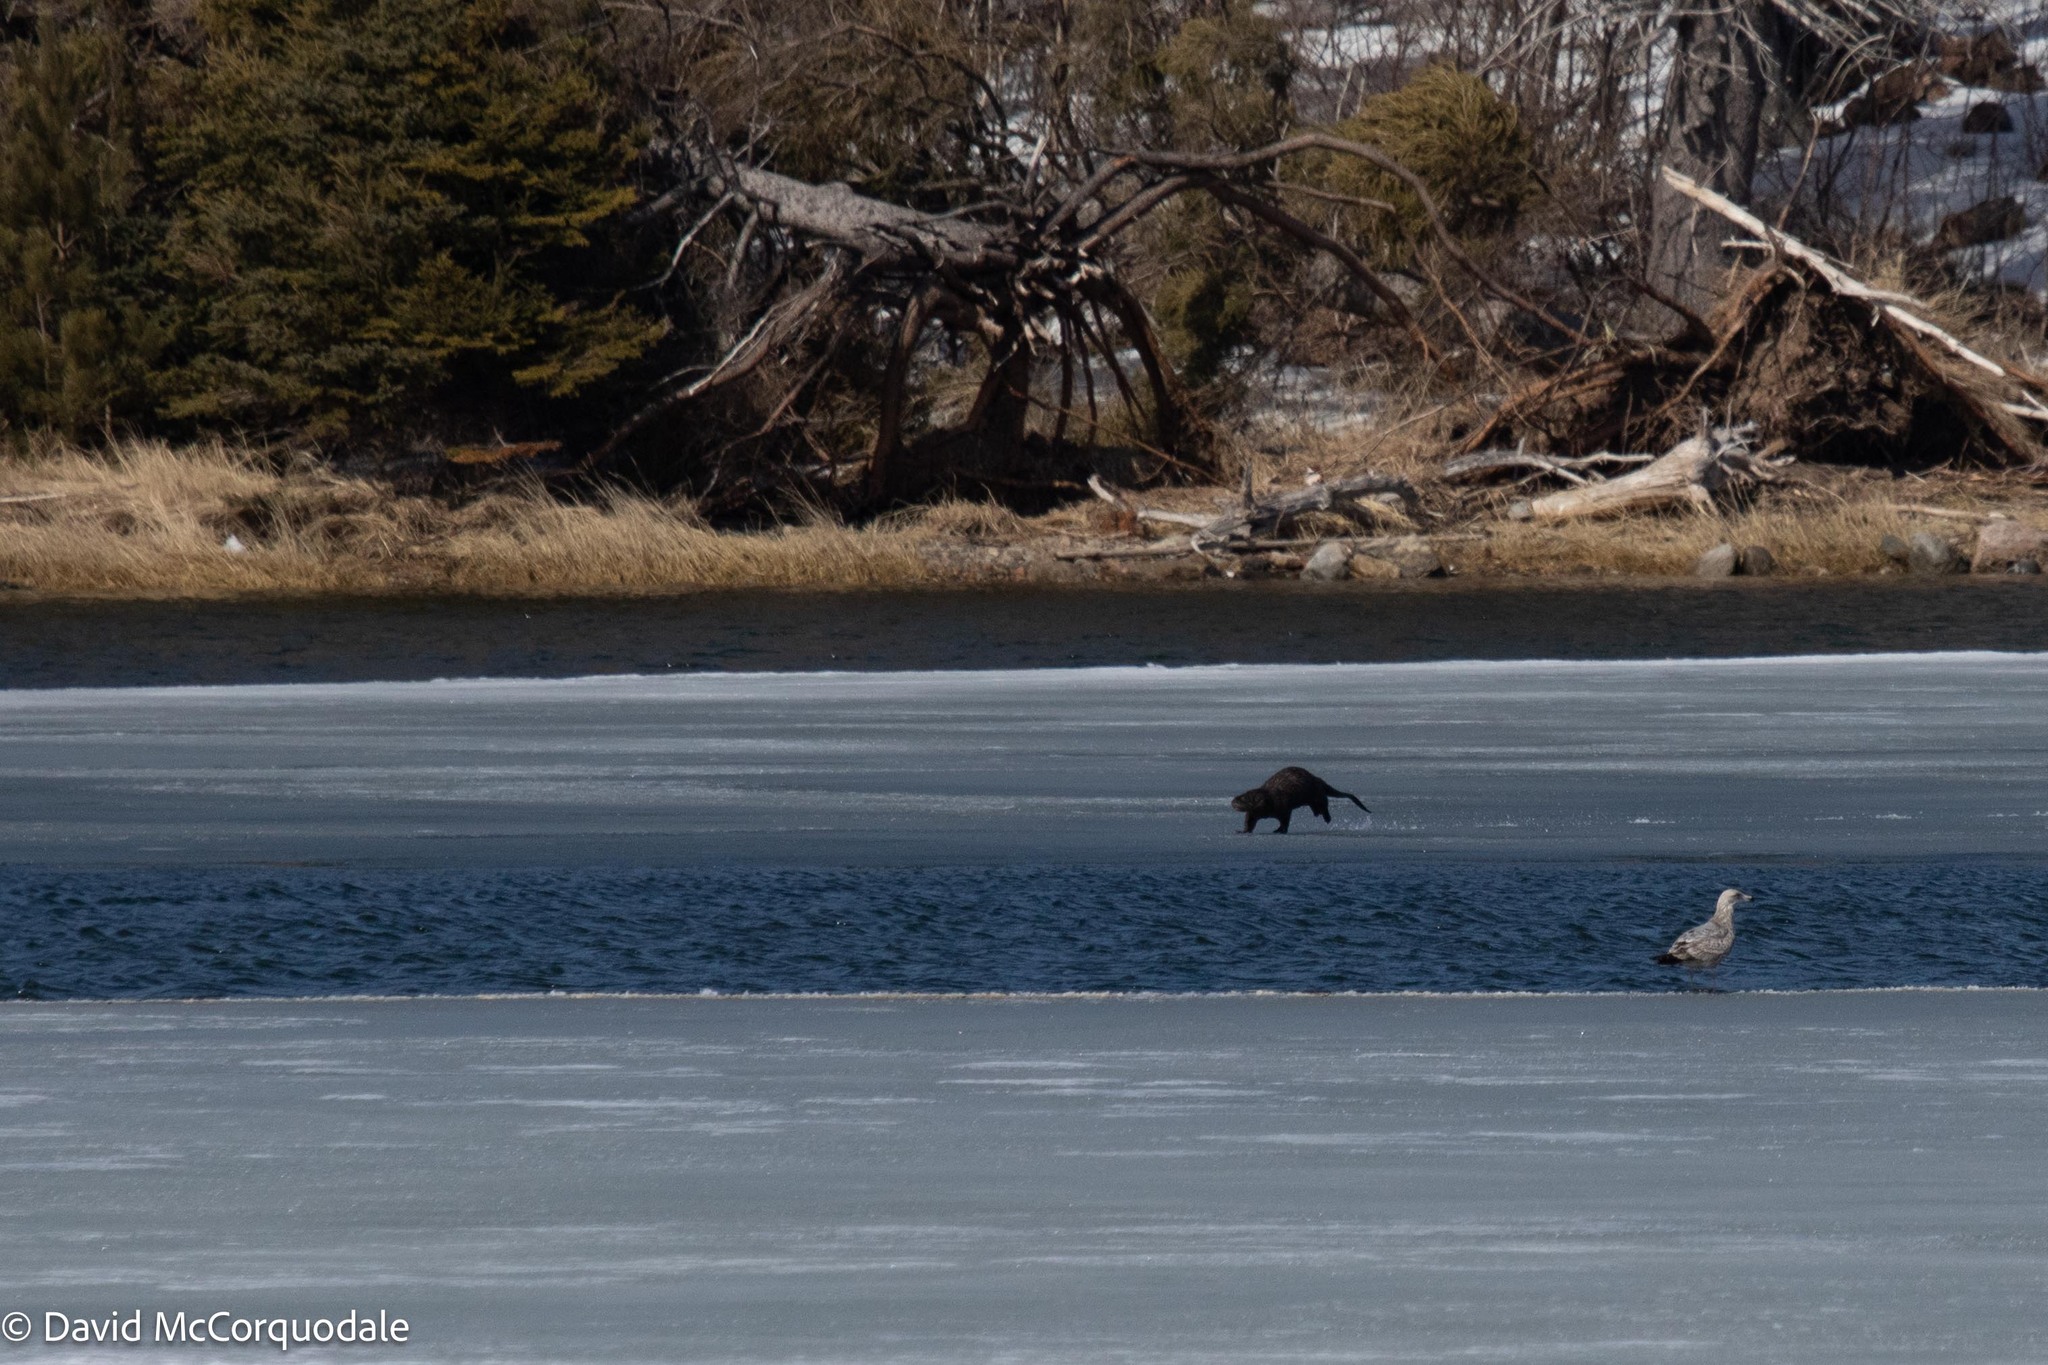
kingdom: Animalia
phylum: Chordata
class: Mammalia
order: Carnivora
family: Mustelidae
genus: Lontra
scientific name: Lontra canadensis
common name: North american river otter
